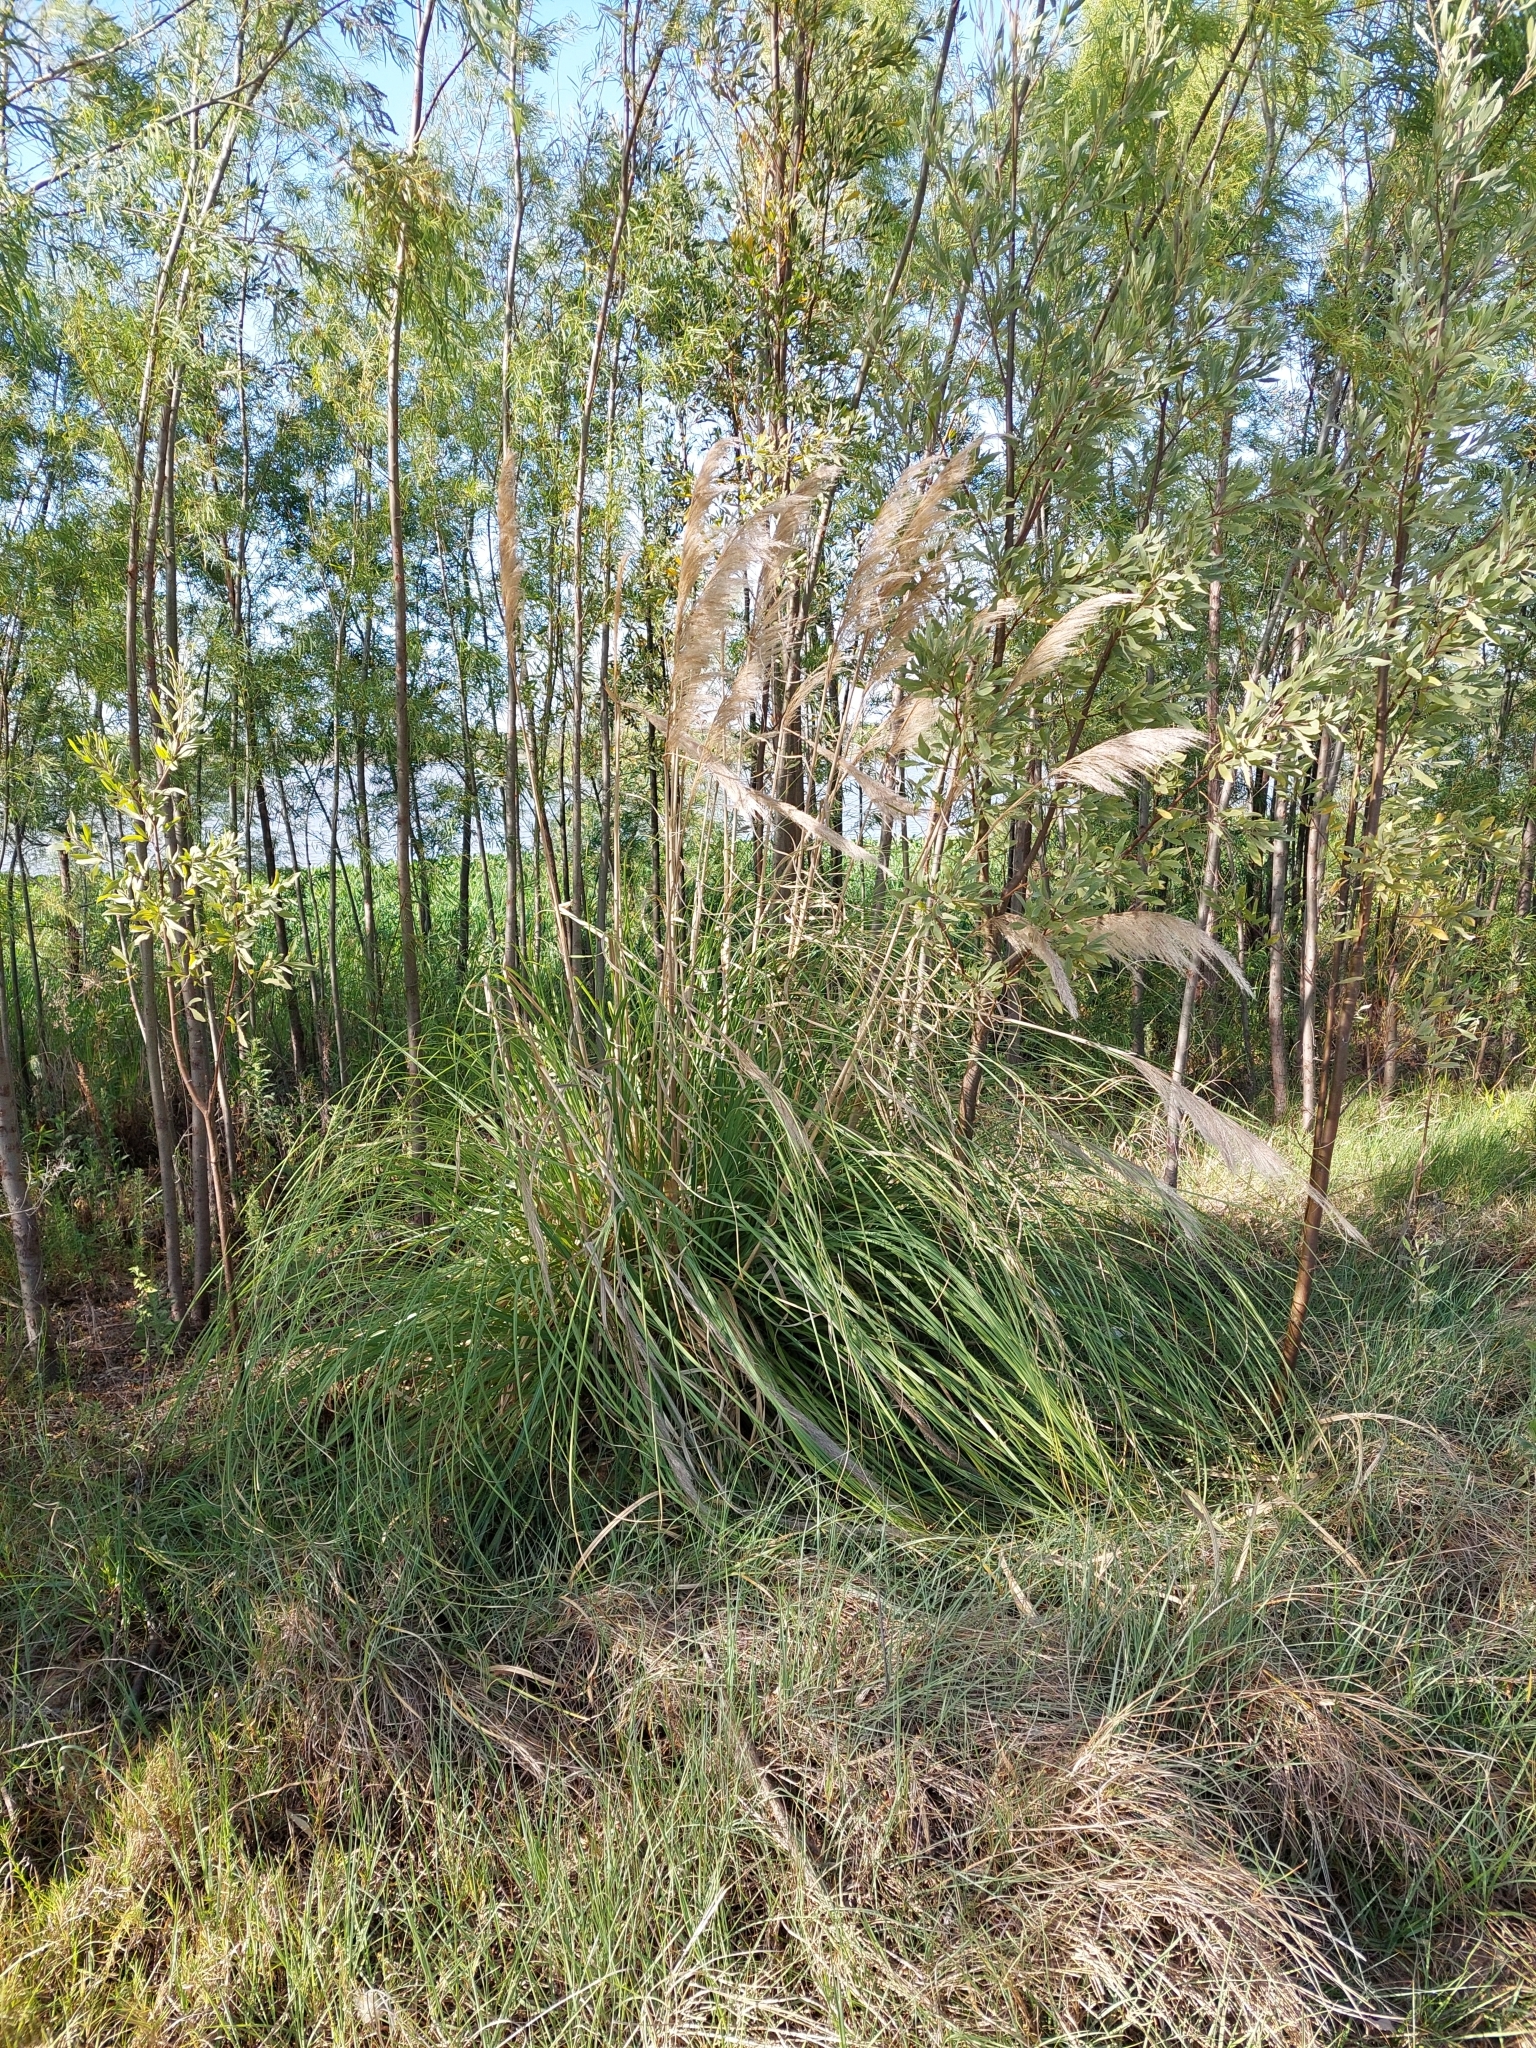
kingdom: Plantae
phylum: Tracheophyta
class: Liliopsida
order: Poales
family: Poaceae
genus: Cortaderia
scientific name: Cortaderia selloana
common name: Uruguayan pampas grass
